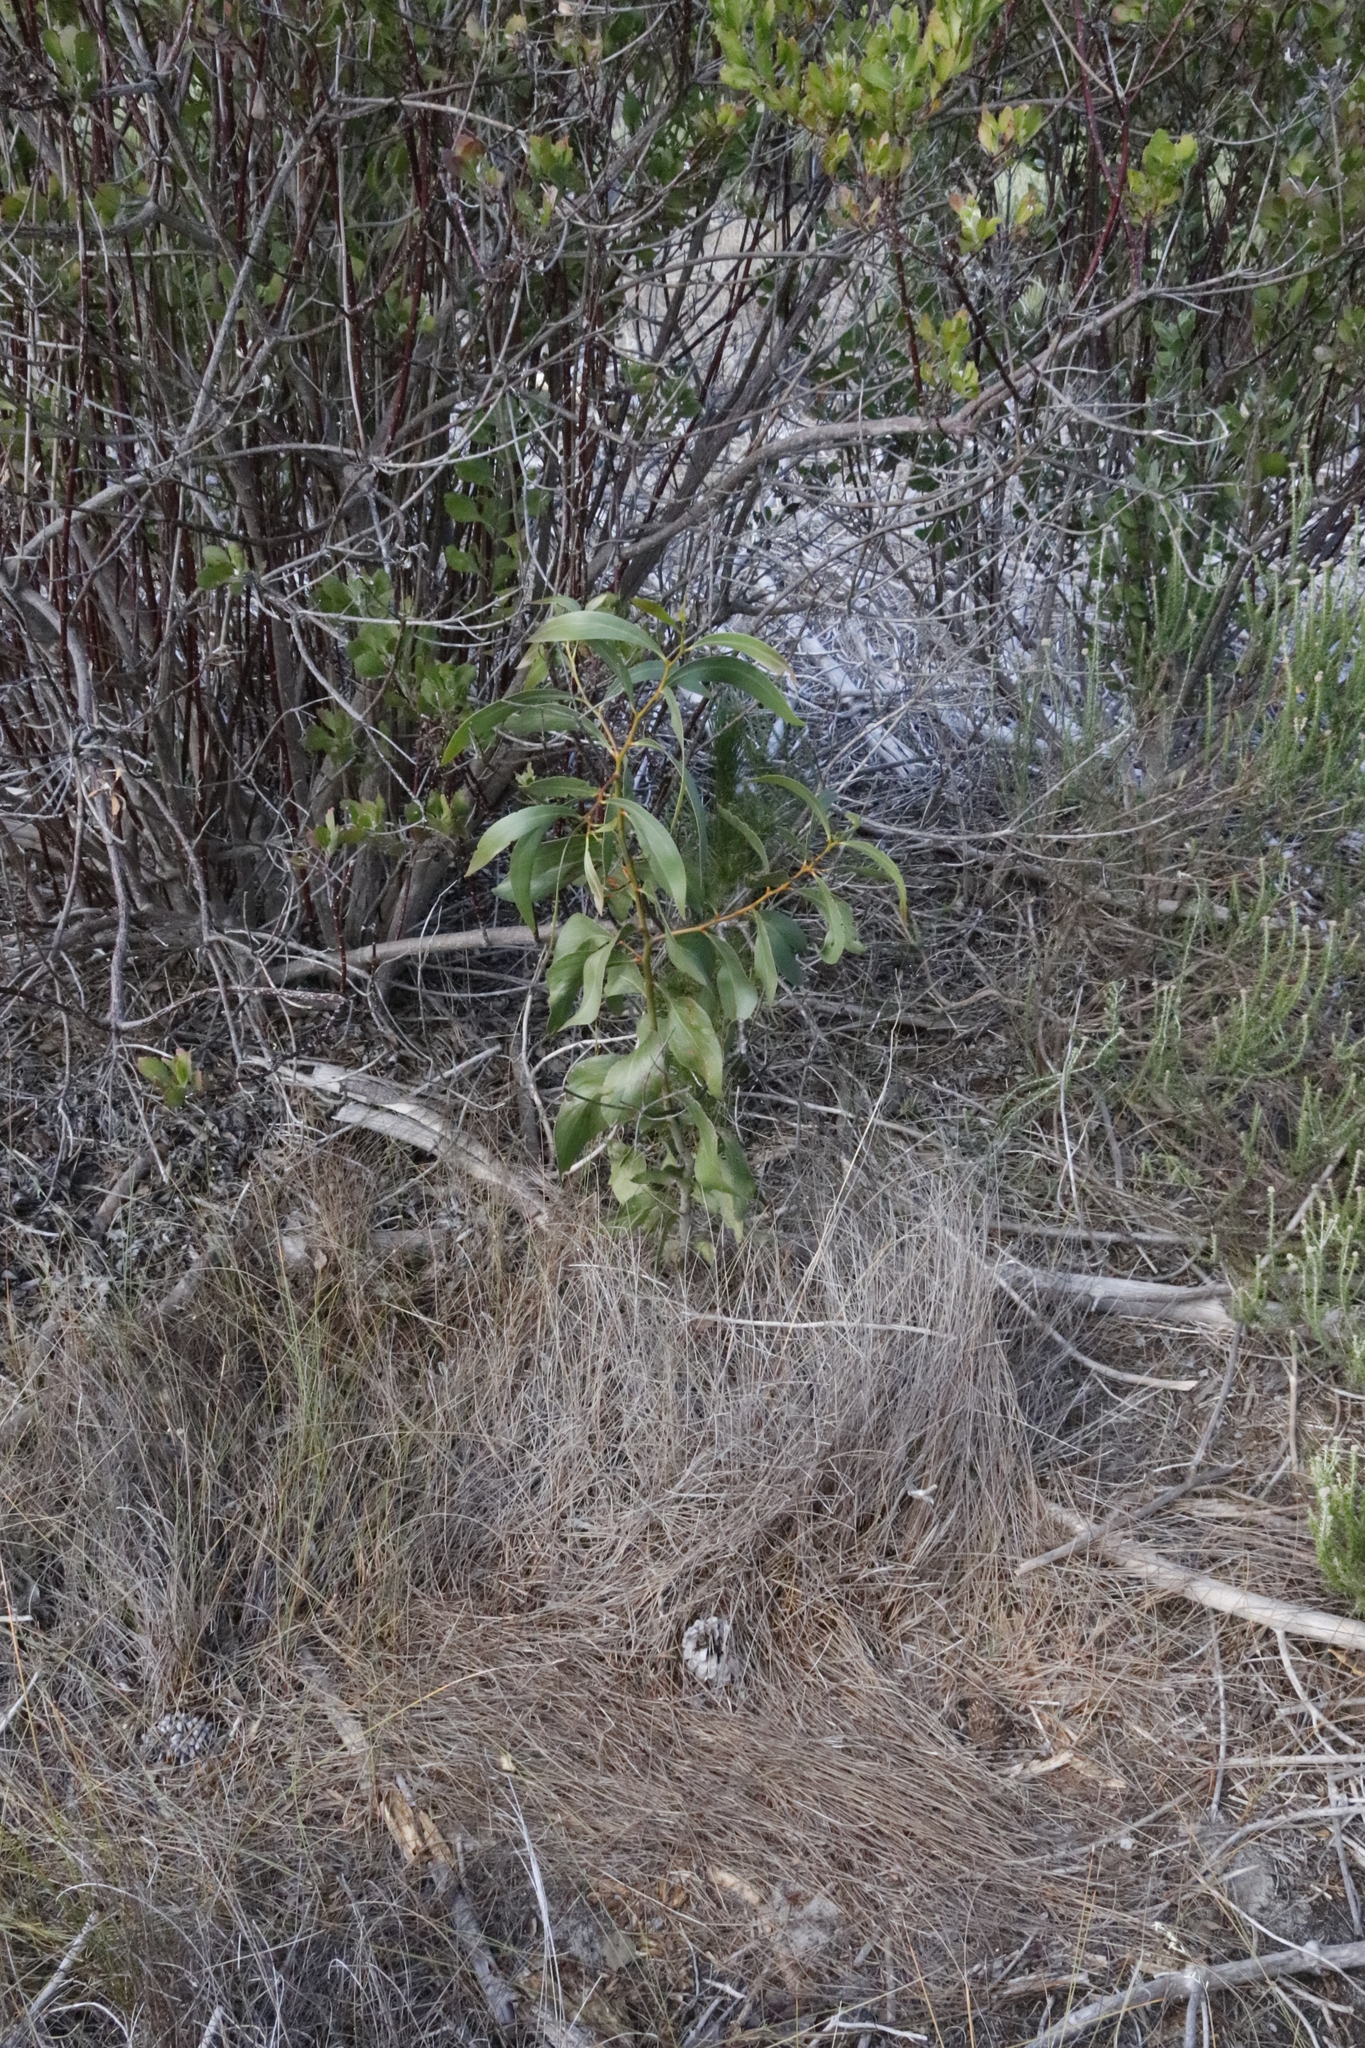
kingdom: Plantae
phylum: Tracheophyta
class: Magnoliopsida
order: Fabales
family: Fabaceae
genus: Acacia
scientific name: Acacia pycnantha
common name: Golden wattle
